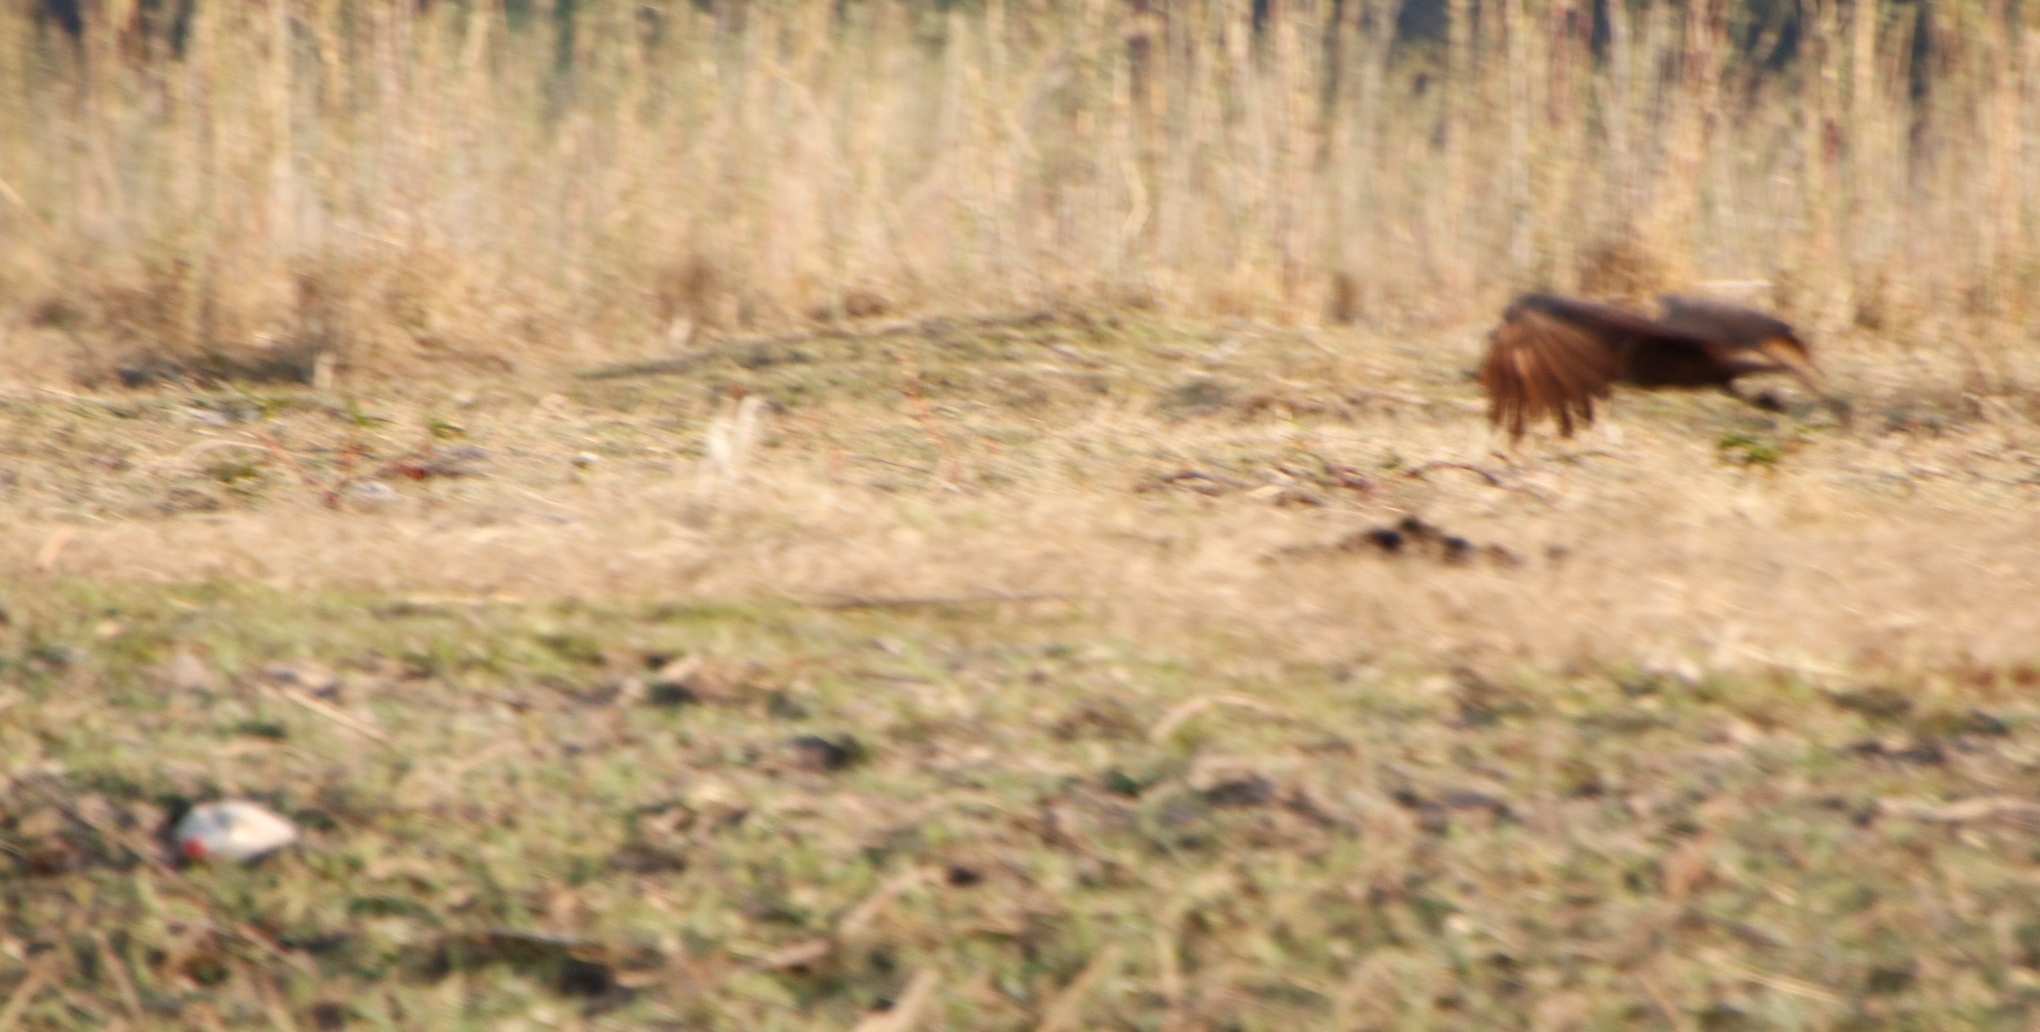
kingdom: Animalia
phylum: Chordata
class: Aves
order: Pelecaniformes
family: Scopidae
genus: Scopus
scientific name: Scopus umbretta
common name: Hamerkop
